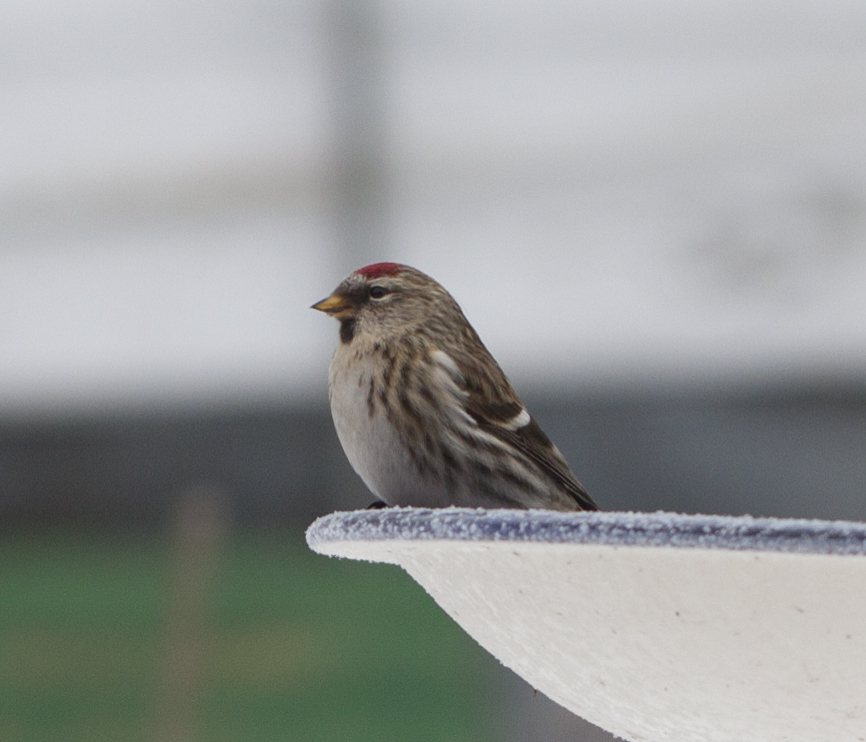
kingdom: Animalia
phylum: Chordata
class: Aves
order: Passeriformes
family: Fringillidae
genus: Acanthis
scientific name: Acanthis flammea
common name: Common redpoll
